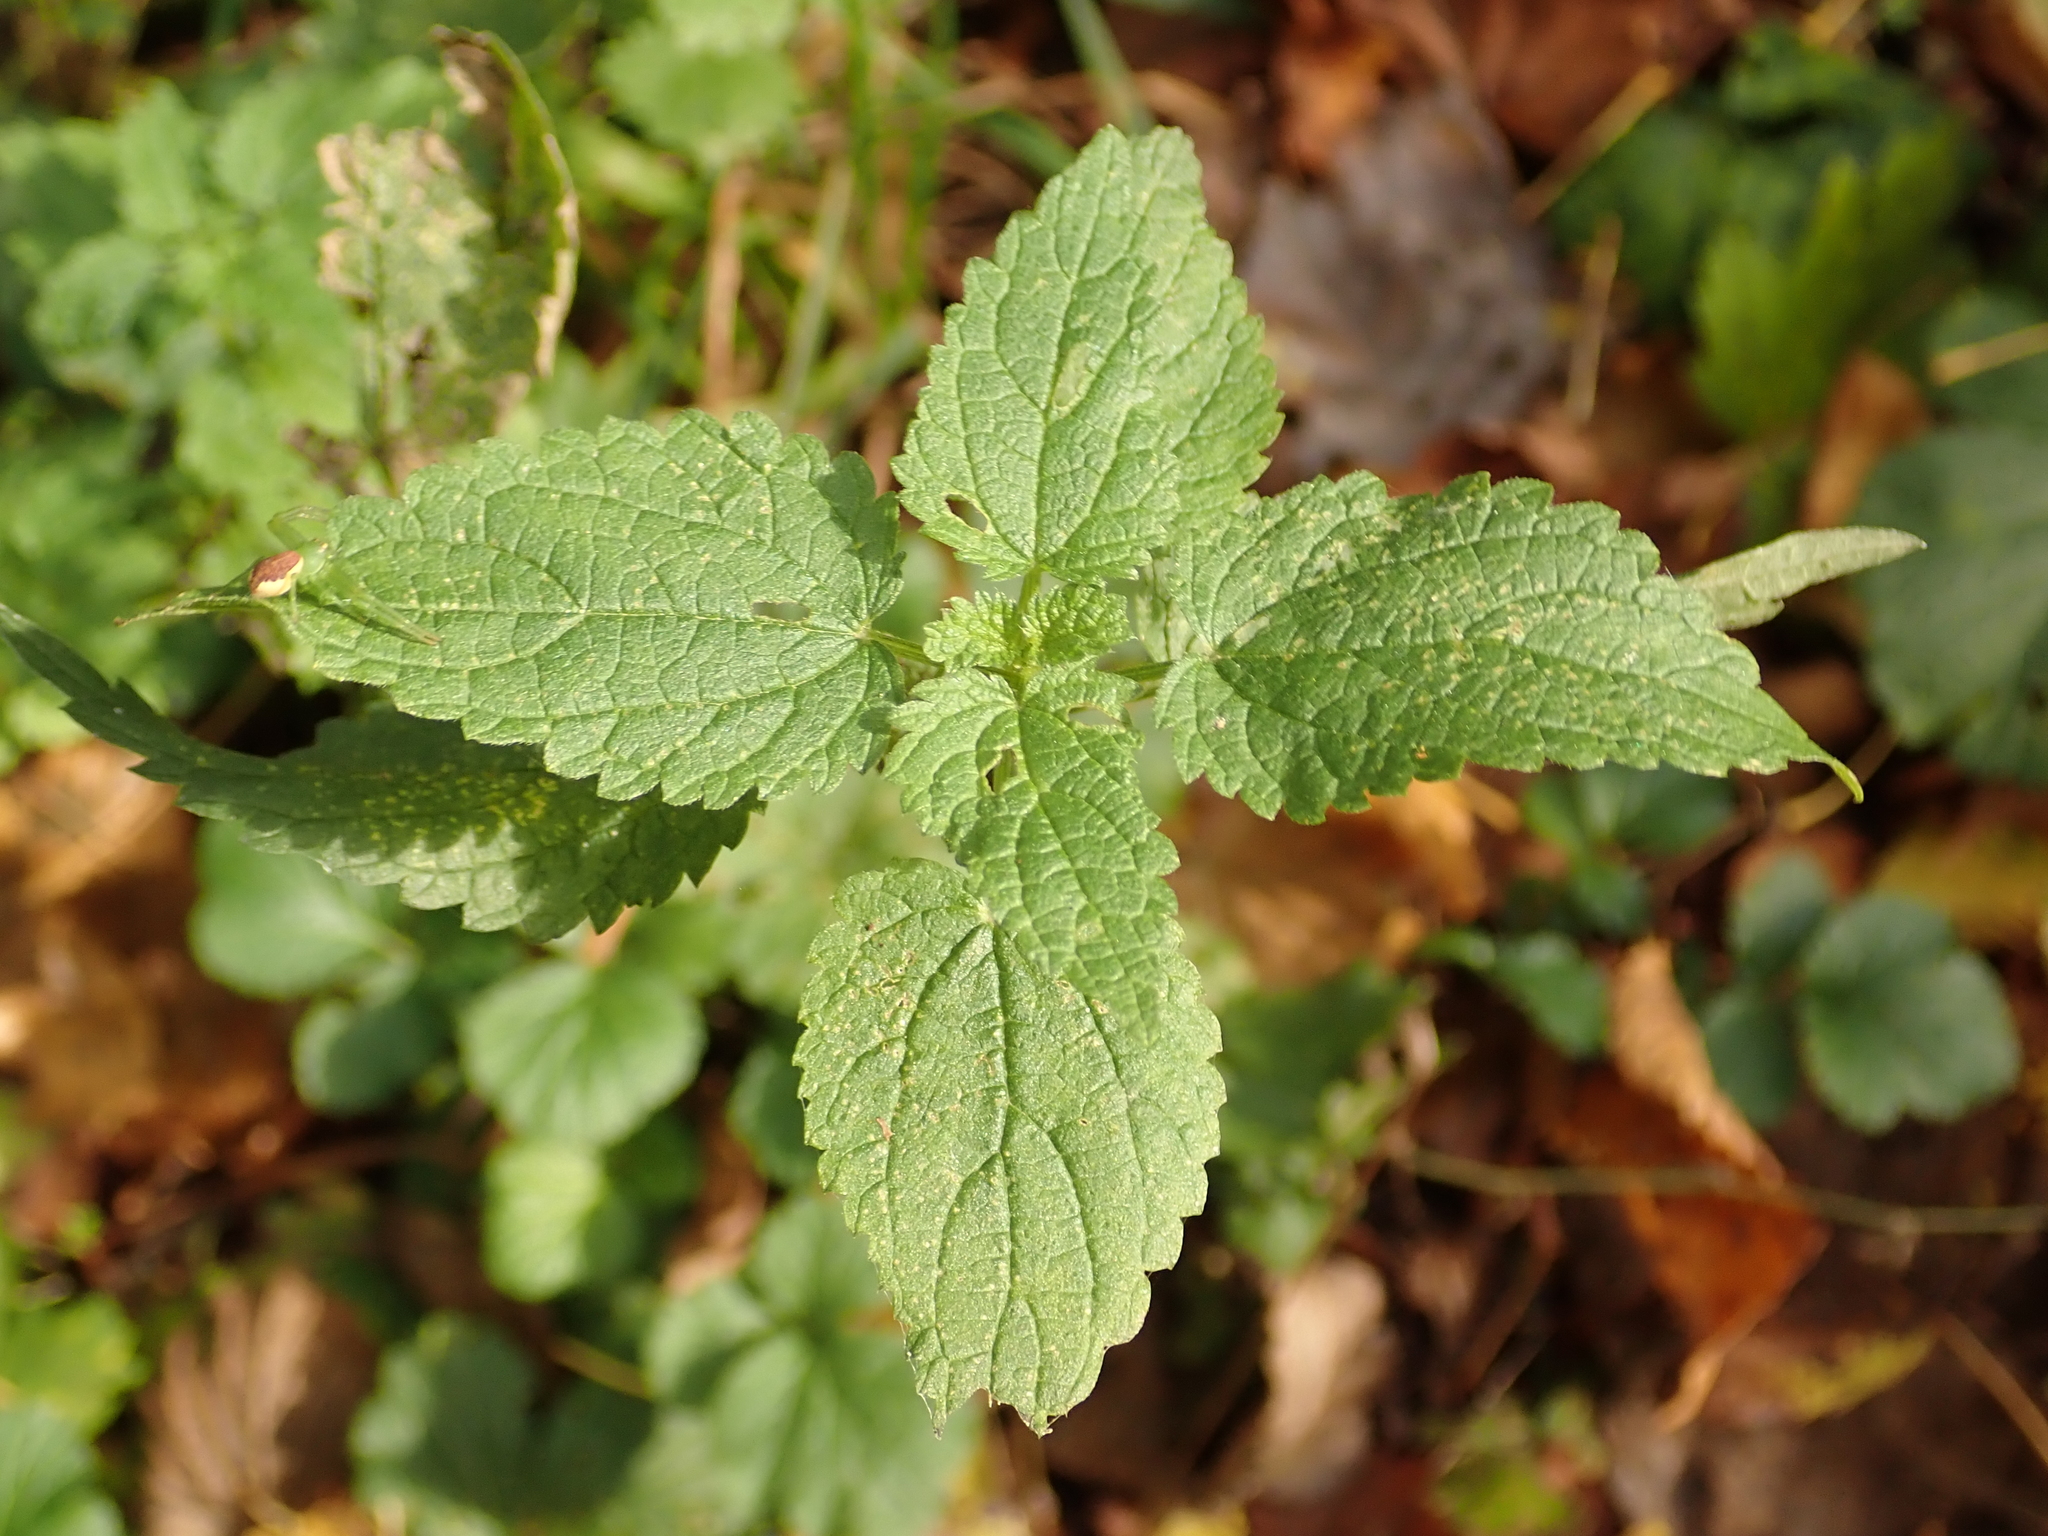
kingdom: Plantae
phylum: Tracheophyta
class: Magnoliopsida
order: Rosales
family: Urticaceae
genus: Urtica
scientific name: Urtica dioica
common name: Common nettle
